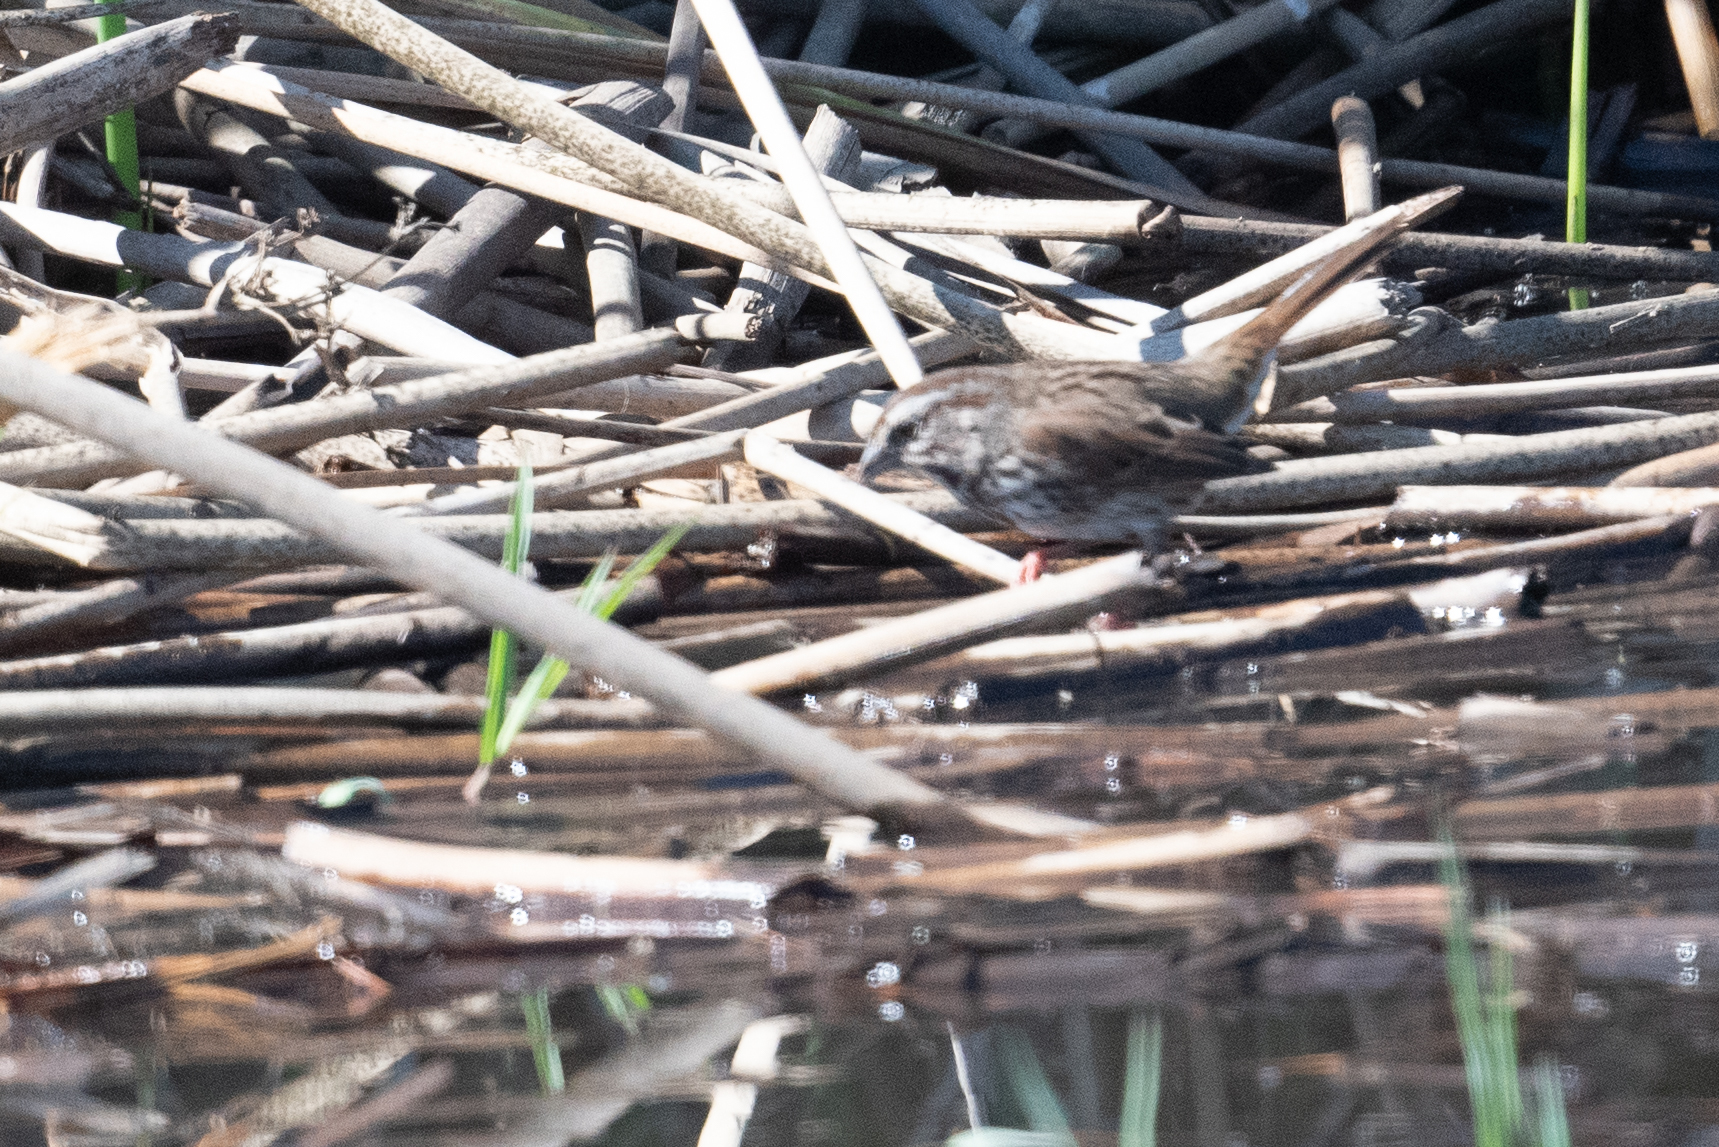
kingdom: Animalia
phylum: Chordata
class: Aves
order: Passeriformes
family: Passerellidae
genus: Melospiza
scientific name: Melospiza melodia
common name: Song sparrow
